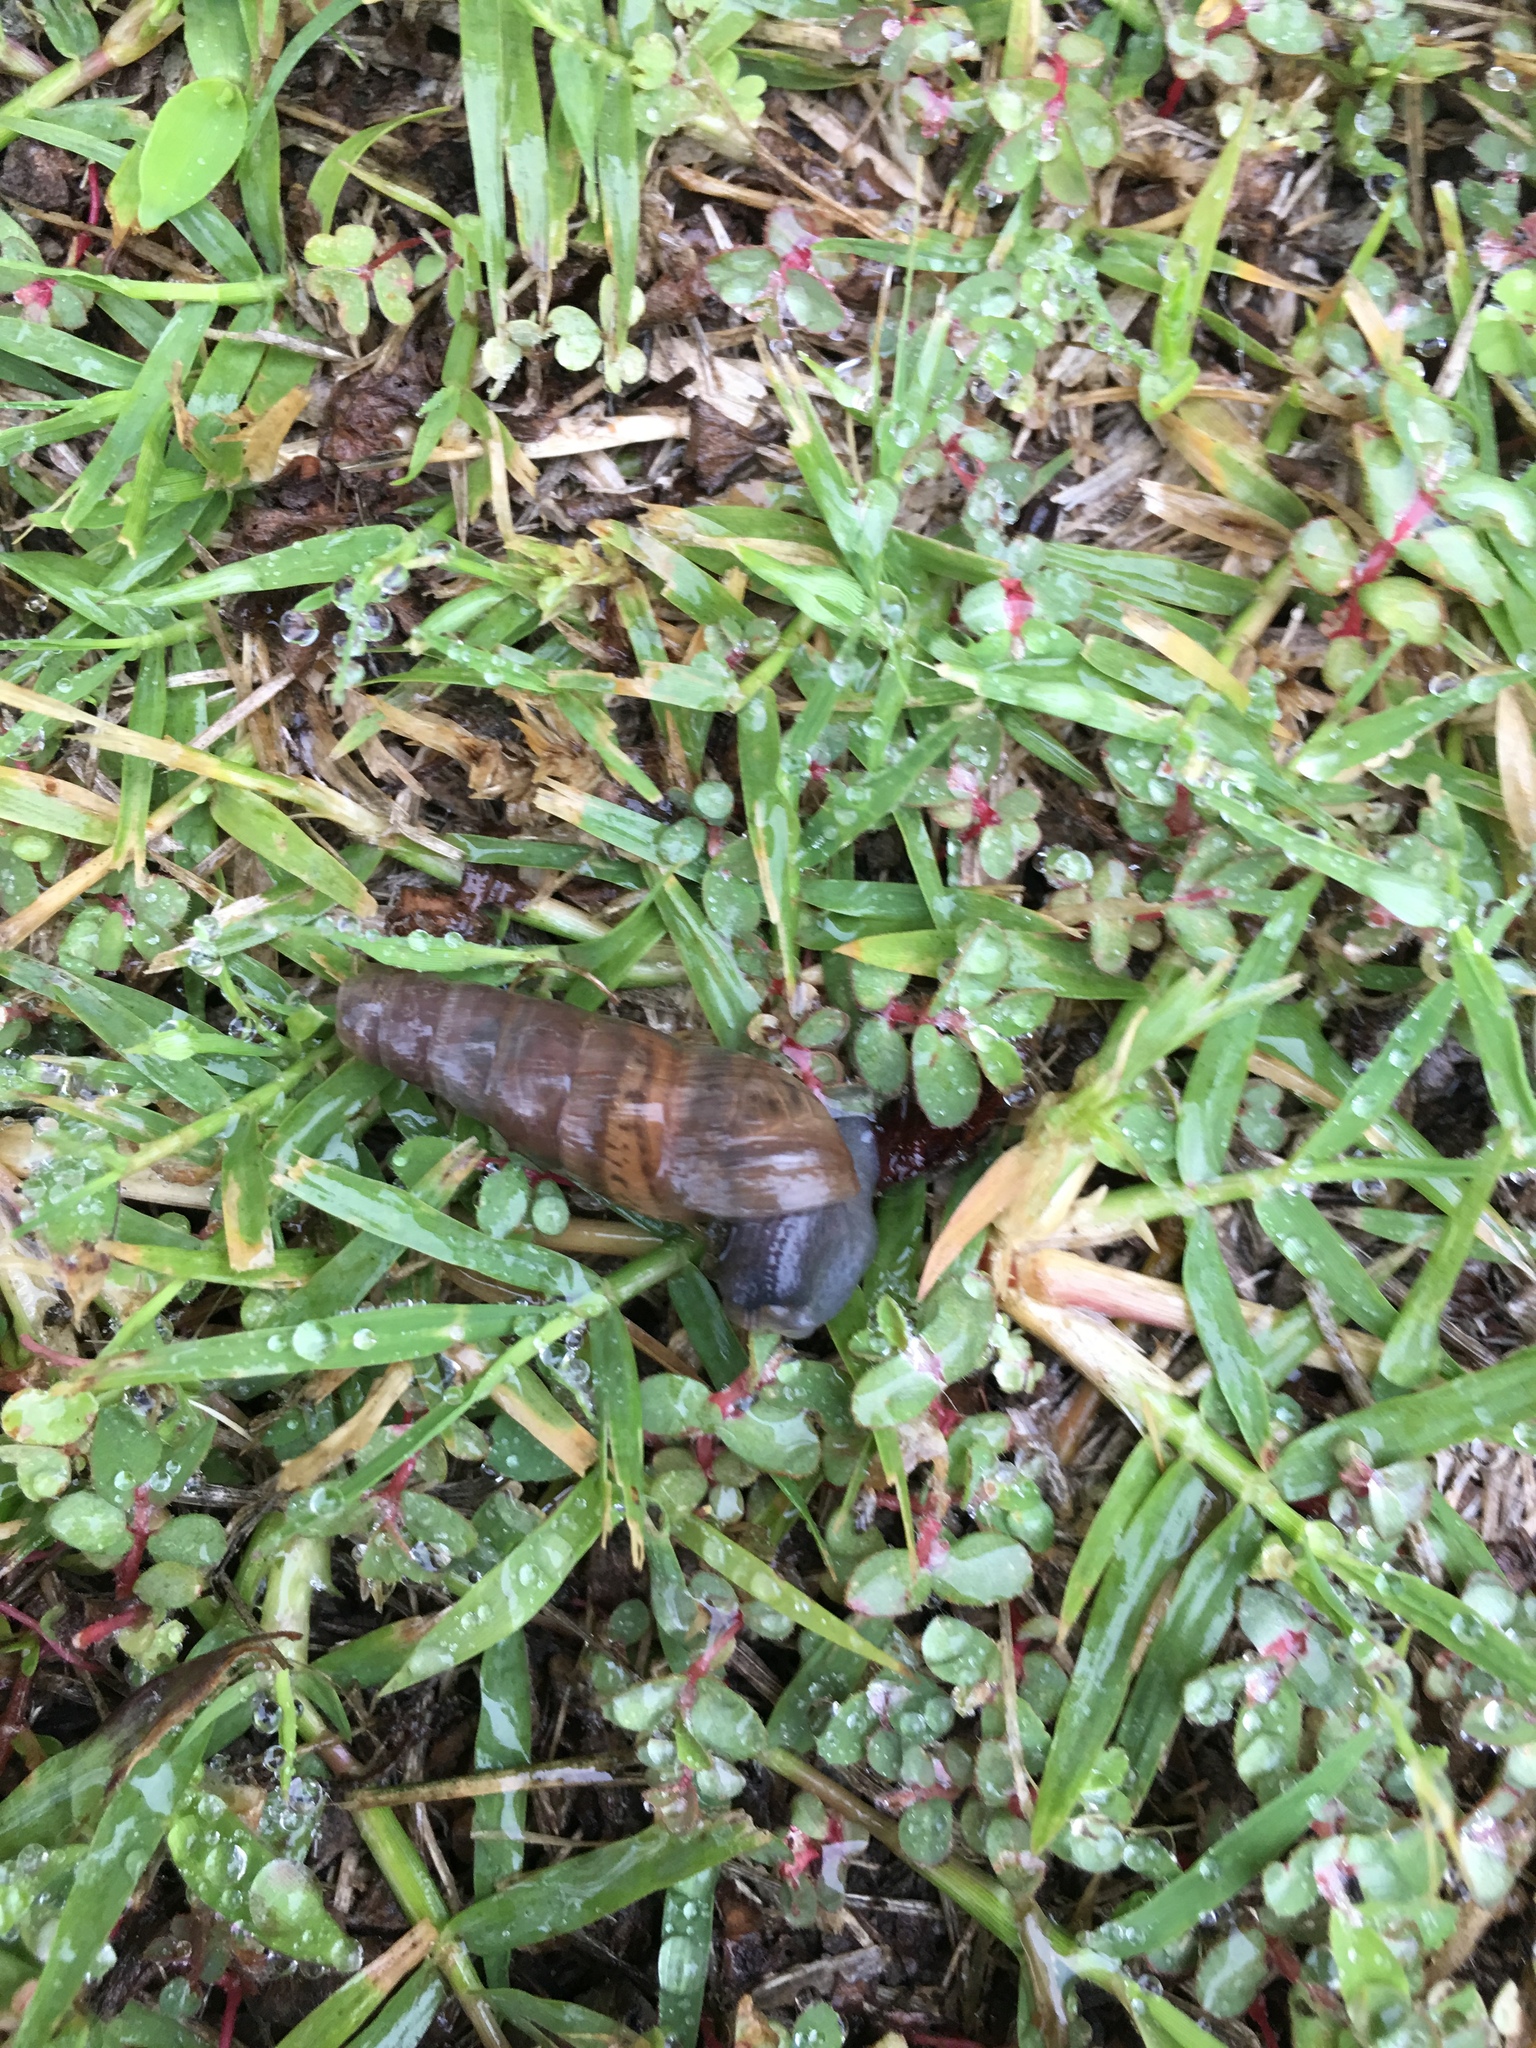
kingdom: Animalia
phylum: Mollusca
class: Gastropoda
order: Stylommatophora
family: Achatinidae
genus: Rumina
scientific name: Rumina decollata
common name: Decollate snail
